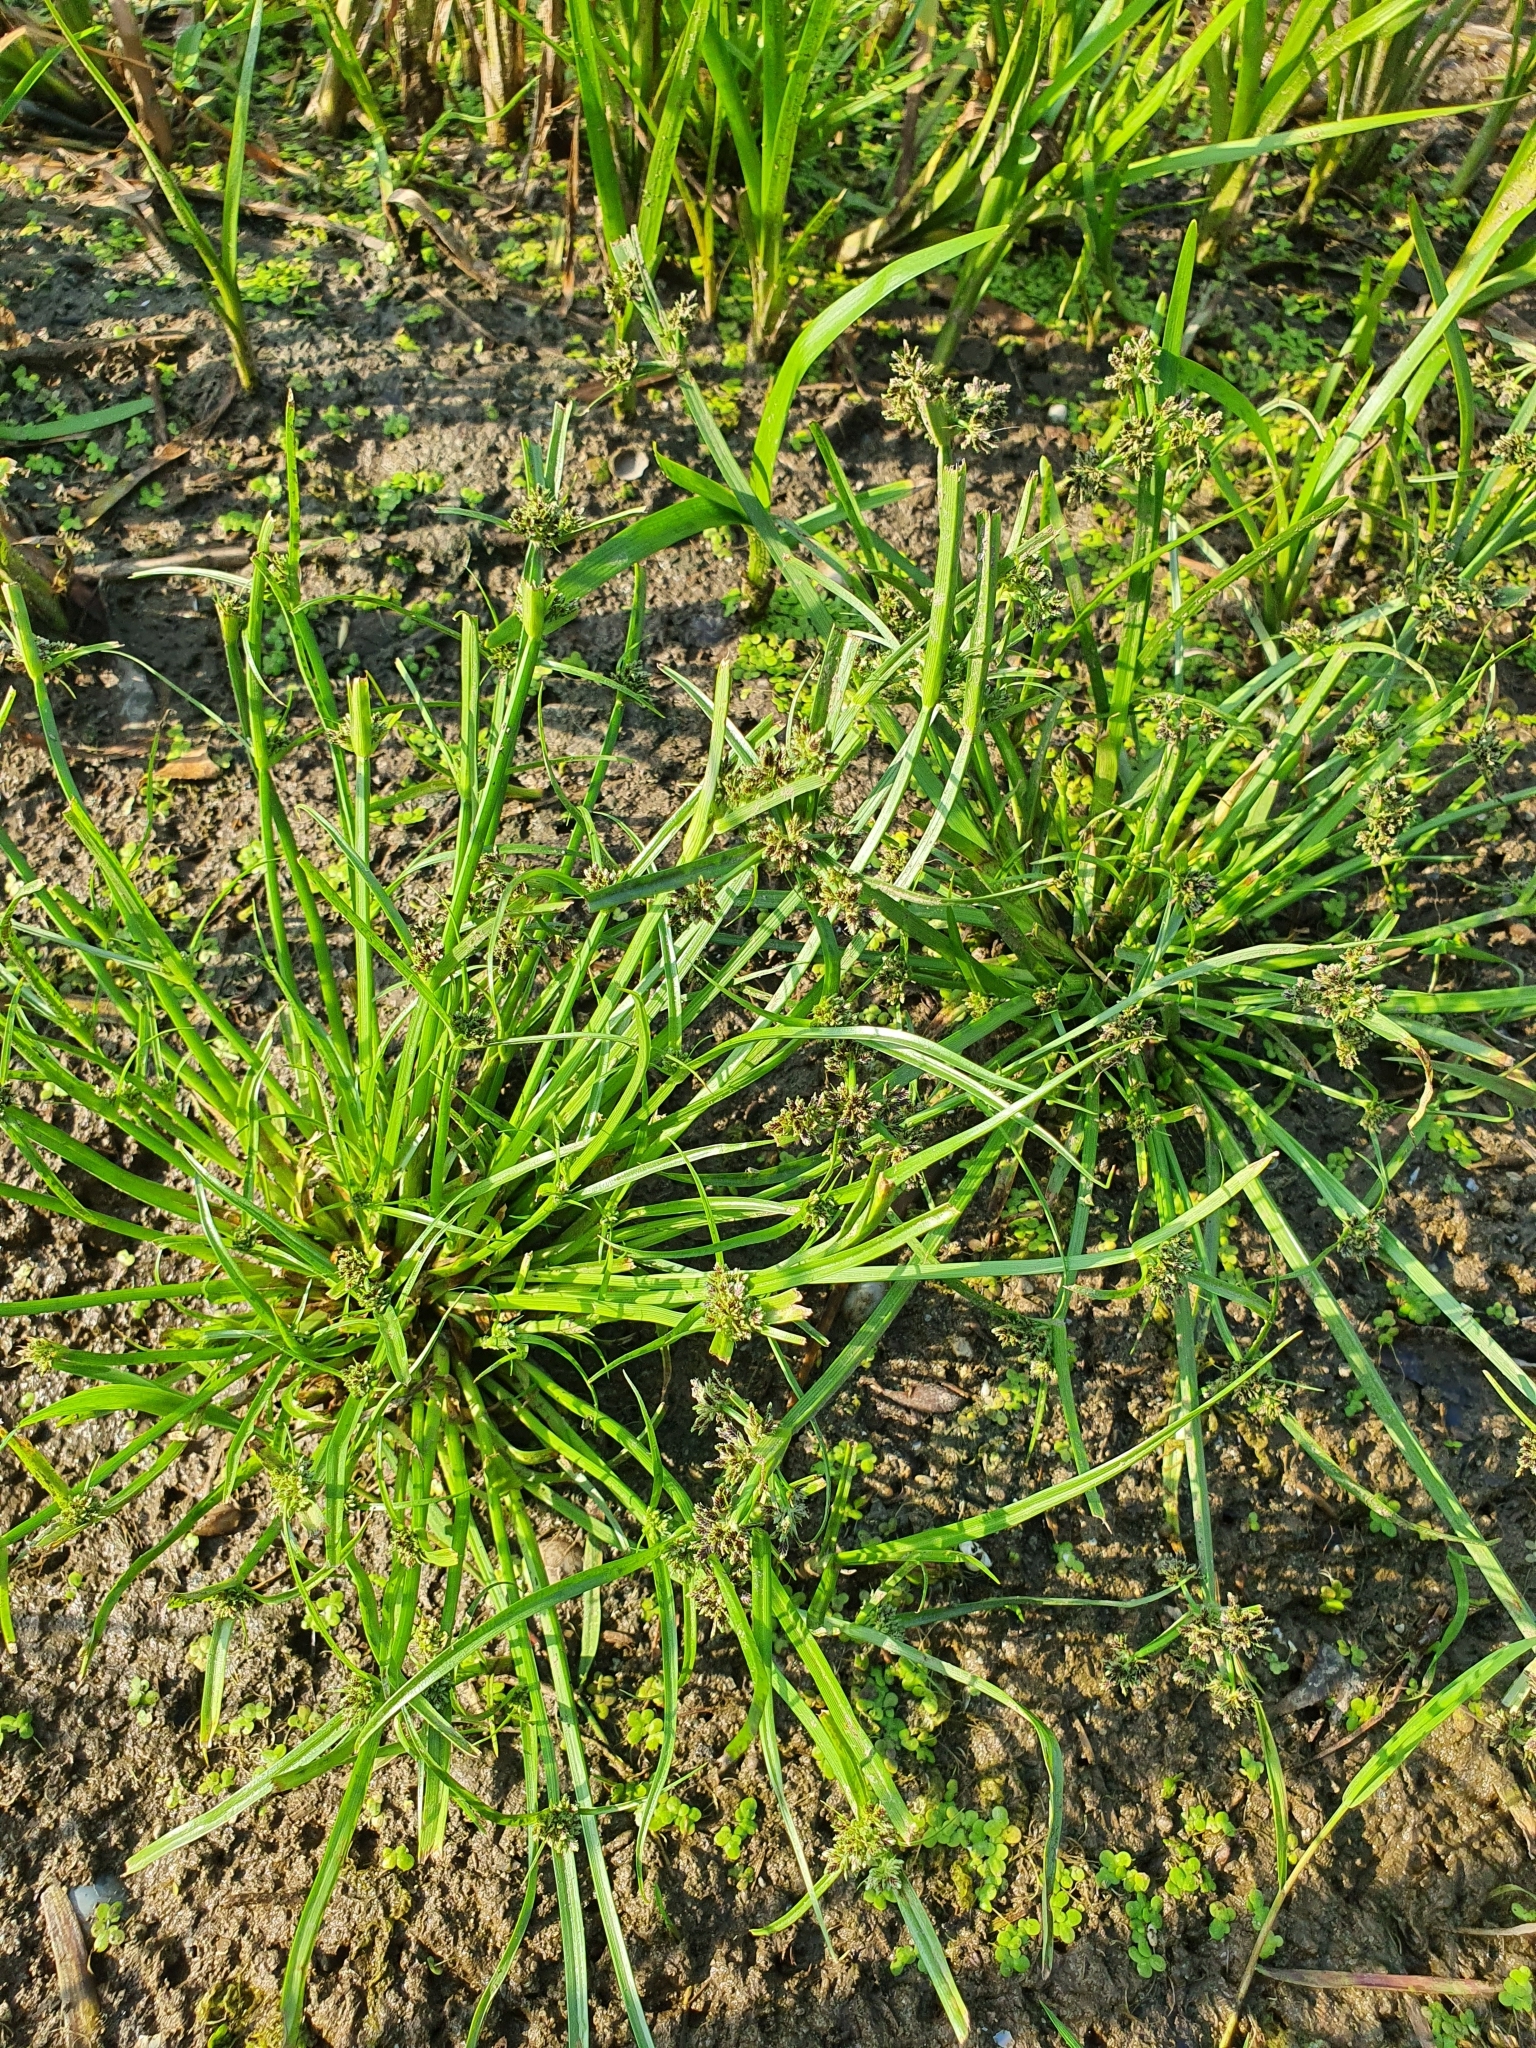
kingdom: Plantae
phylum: Tracheophyta
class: Liliopsida
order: Poales
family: Cyperaceae
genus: Cyperus
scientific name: Cyperus fuscus
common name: Brown galingale
